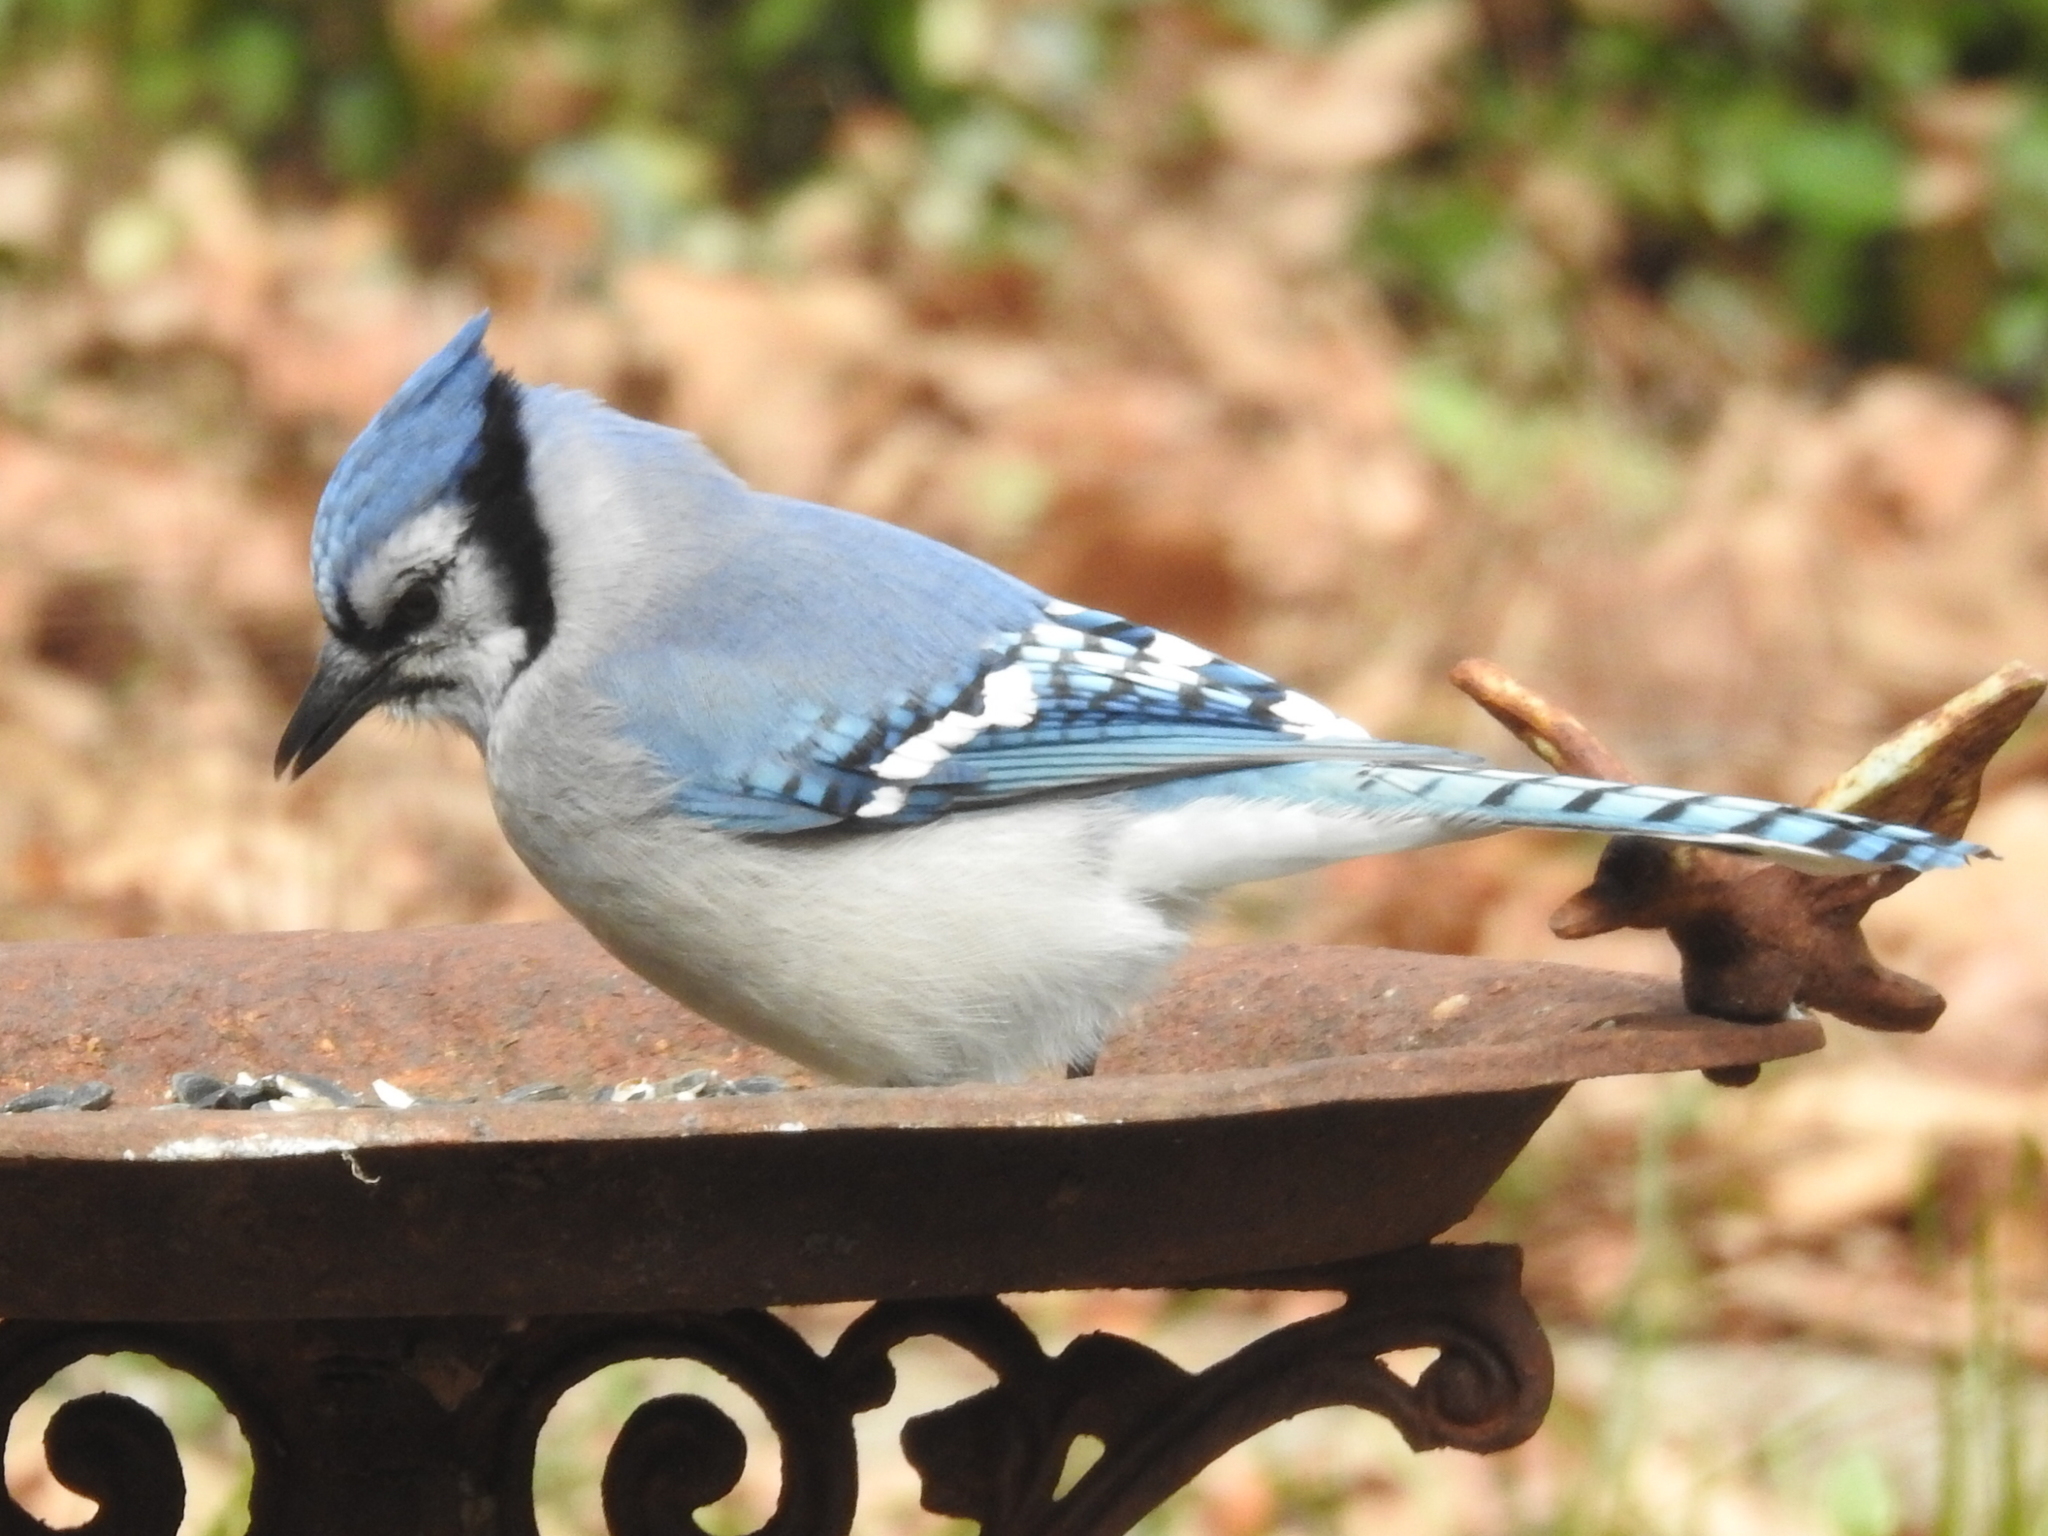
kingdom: Animalia
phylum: Chordata
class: Aves
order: Passeriformes
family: Corvidae
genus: Cyanocitta
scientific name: Cyanocitta cristata
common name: Blue jay
